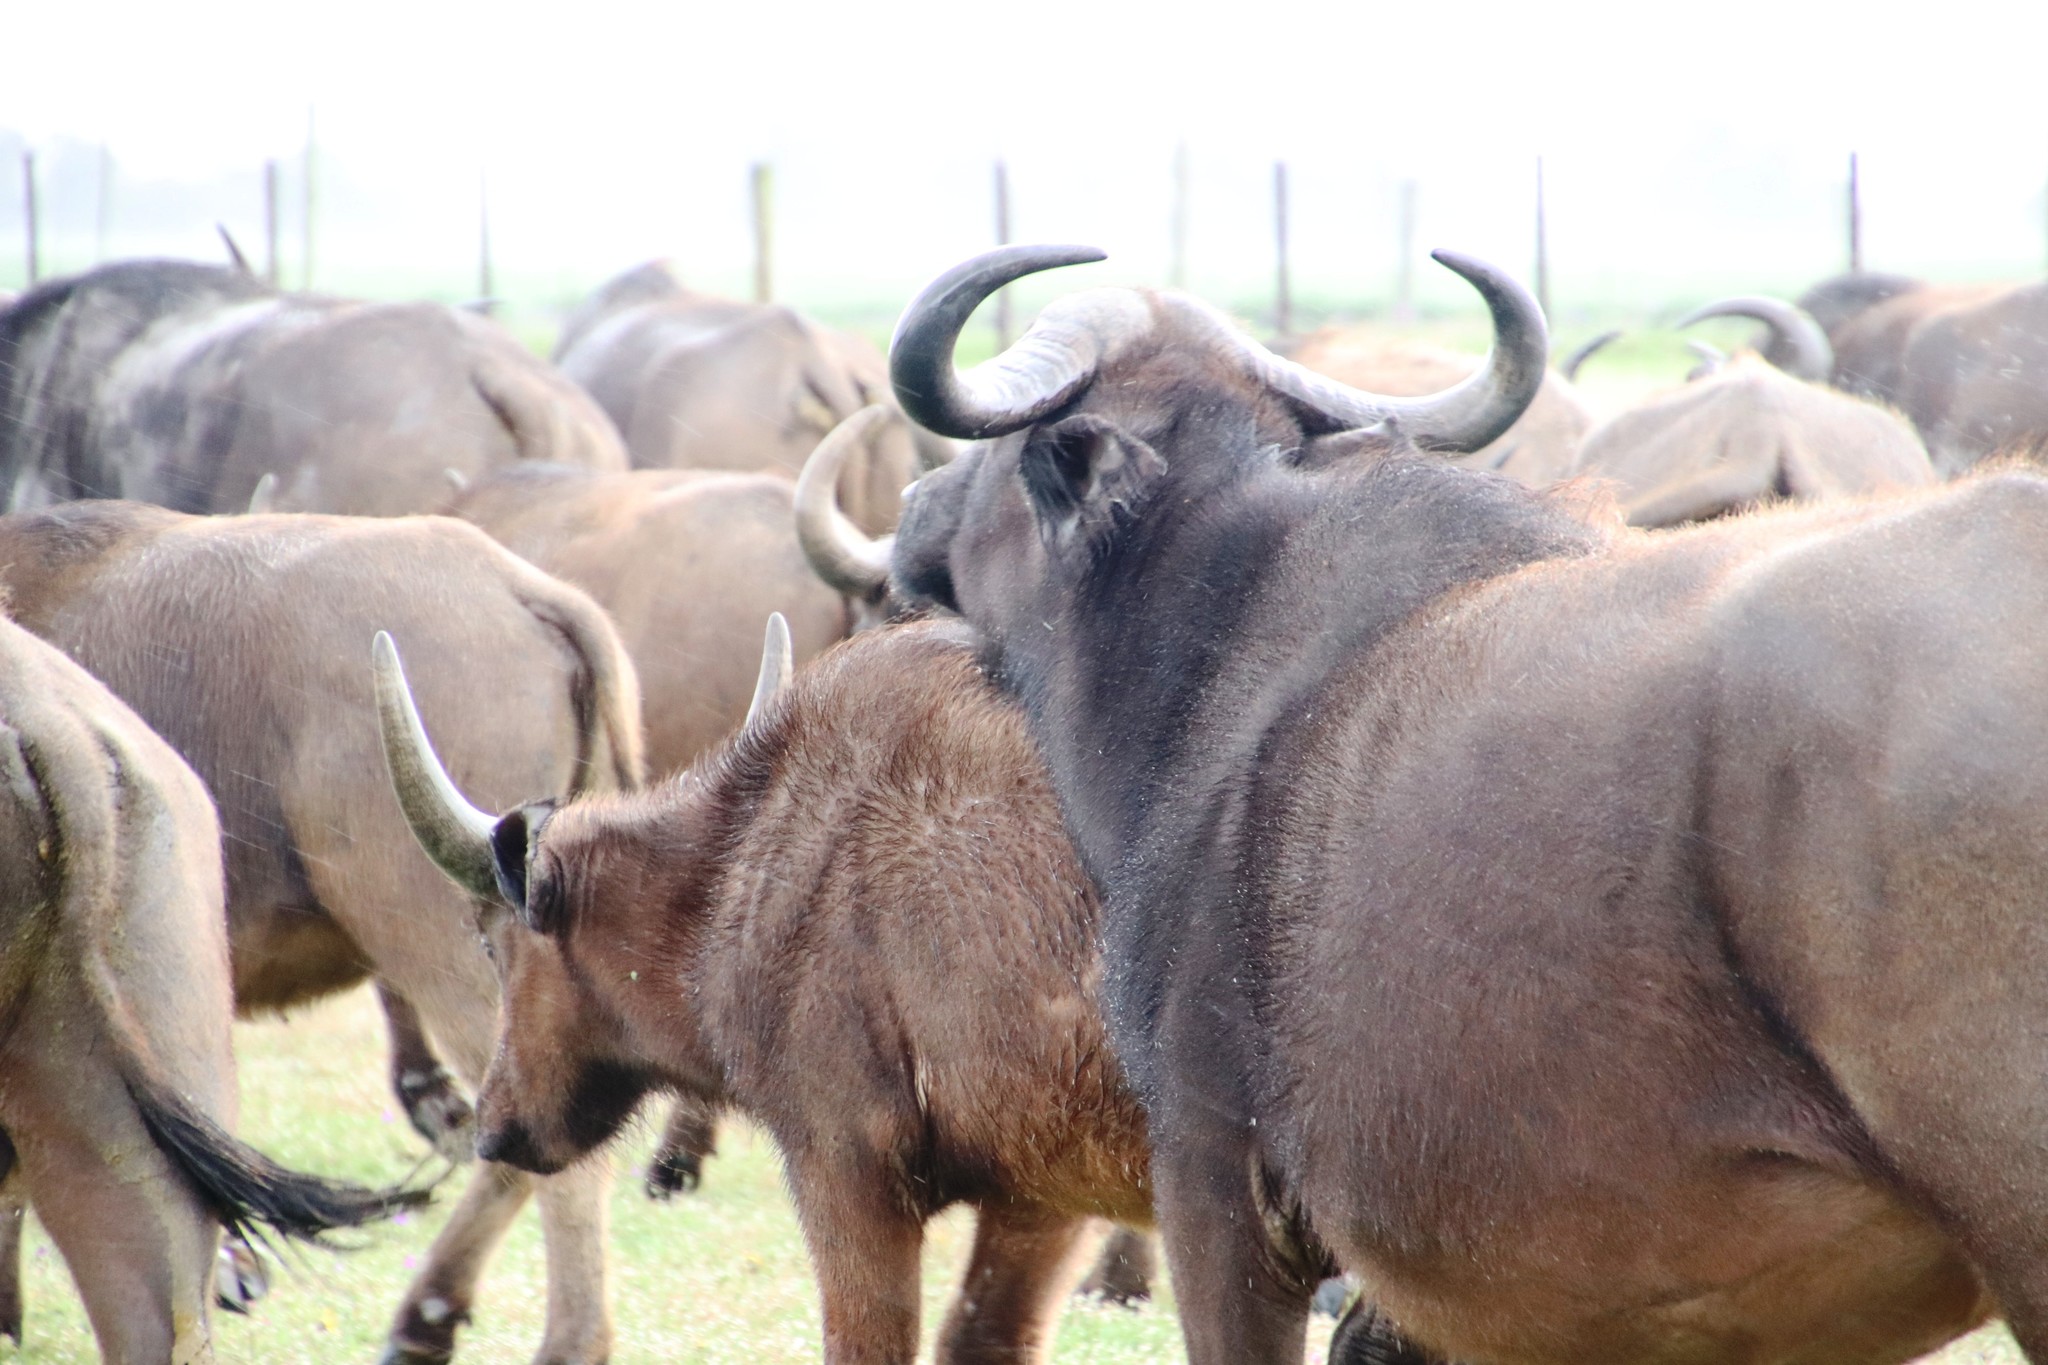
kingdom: Animalia
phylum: Chordata
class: Mammalia
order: Artiodactyla
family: Bovidae
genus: Syncerus
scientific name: Syncerus caffer
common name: African buffalo
